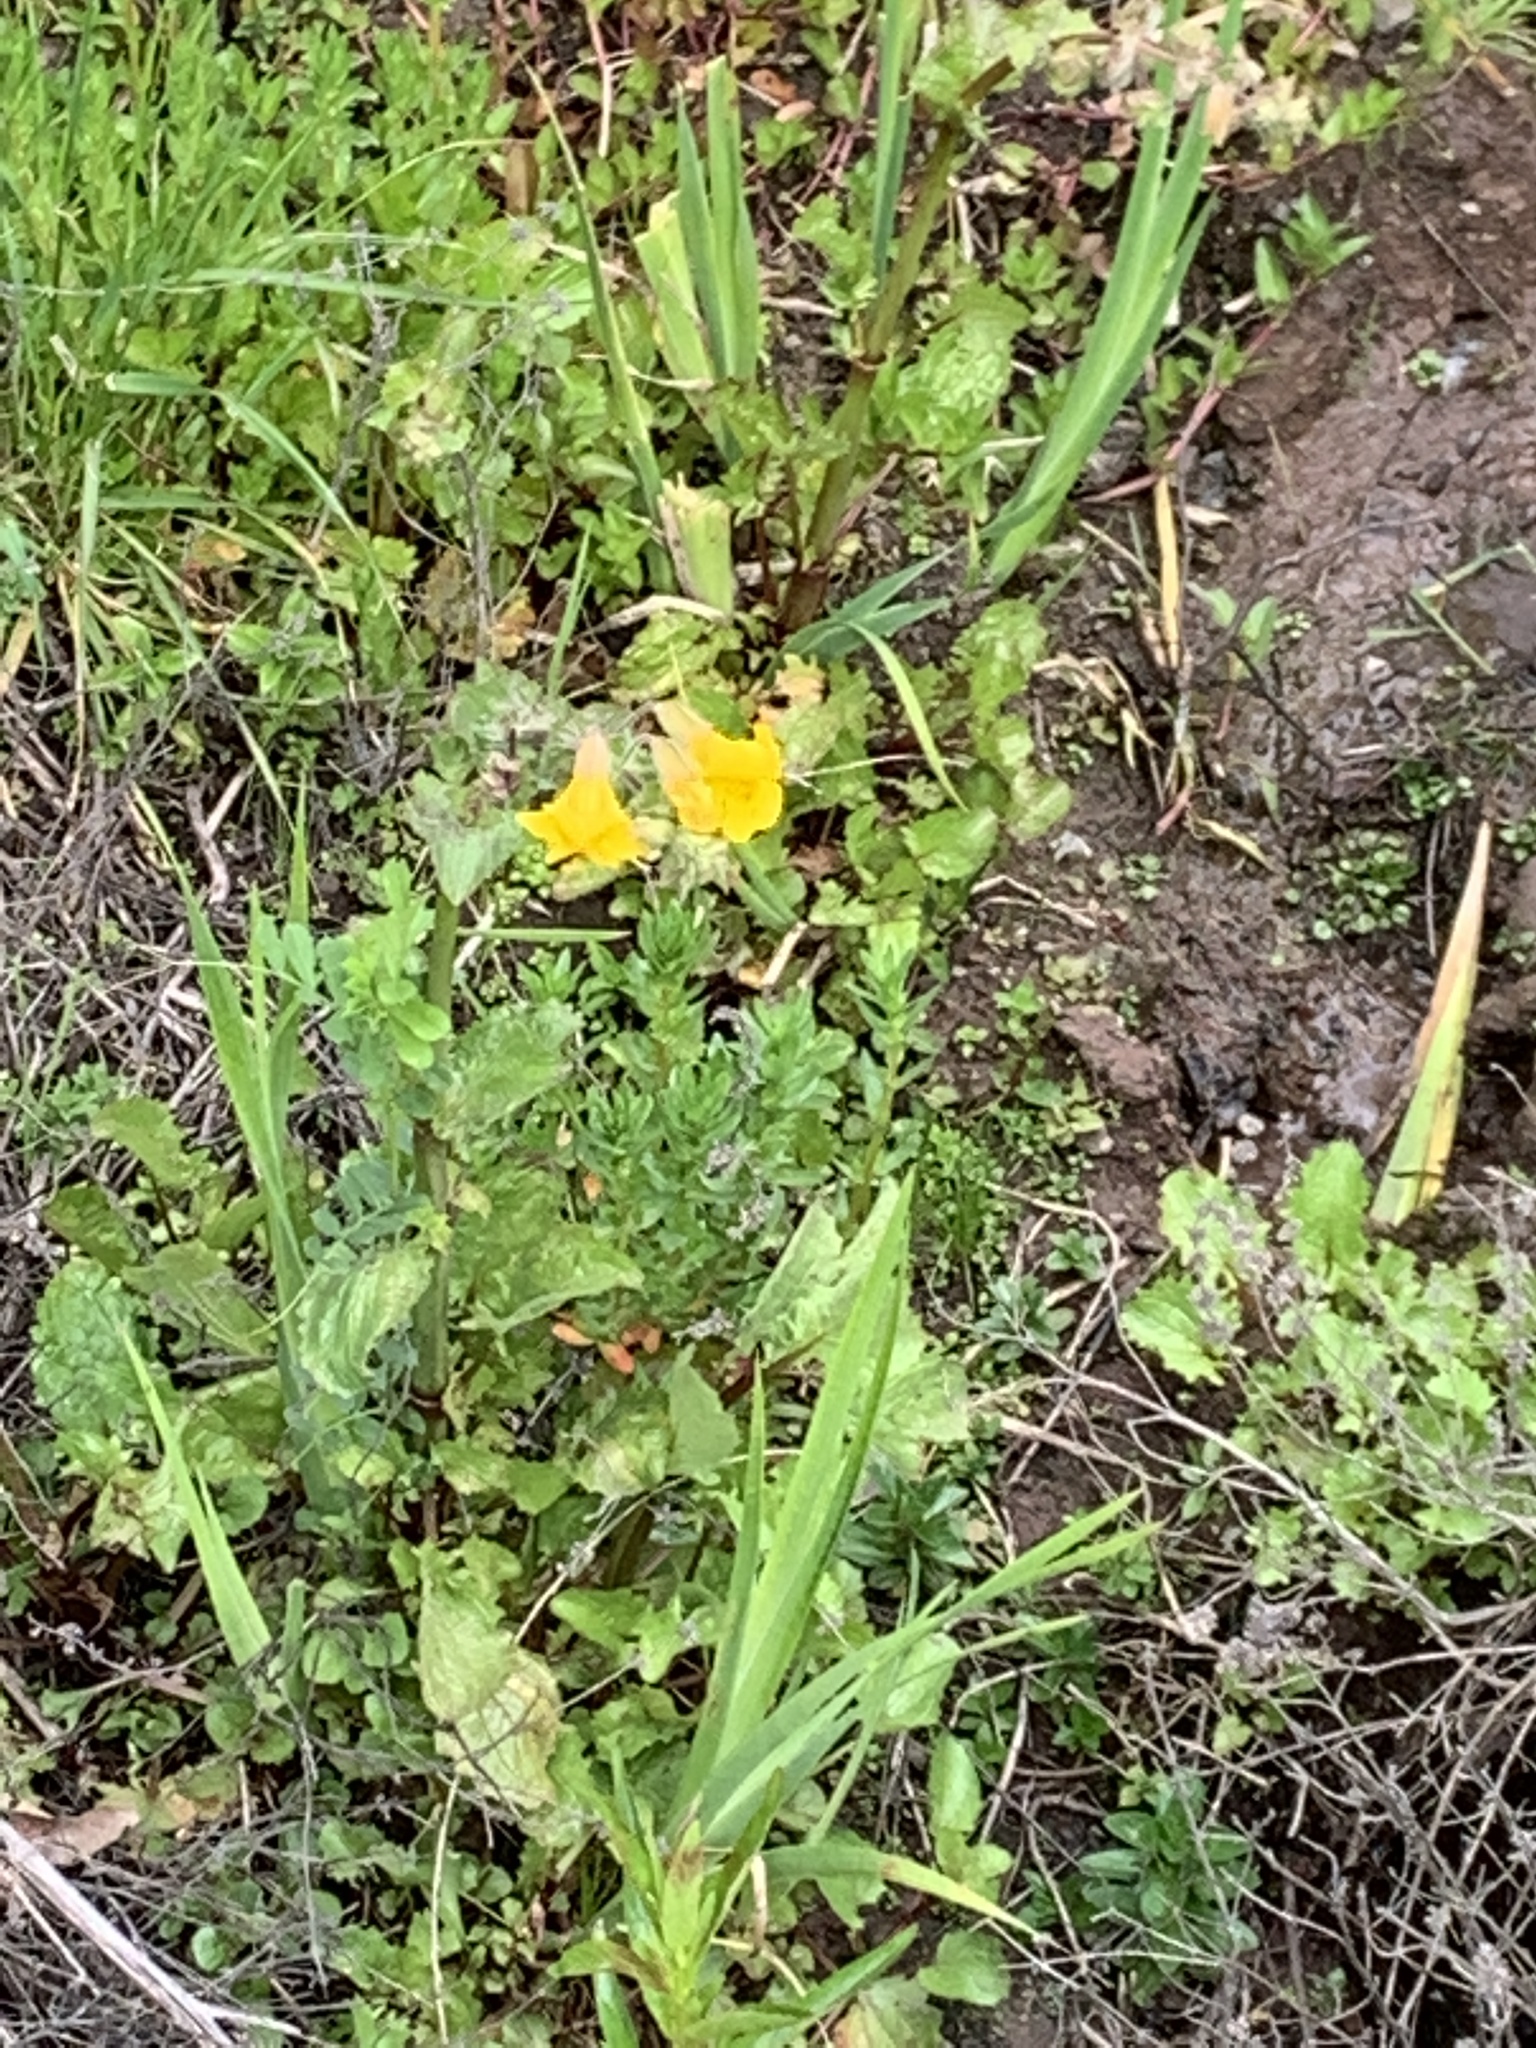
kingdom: Plantae
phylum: Tracheophyta
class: Magnoliopsida
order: Lamiales
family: Phrymaceae
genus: Erythranthe
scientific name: Erythranthe guttata
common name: Monkeyflower
